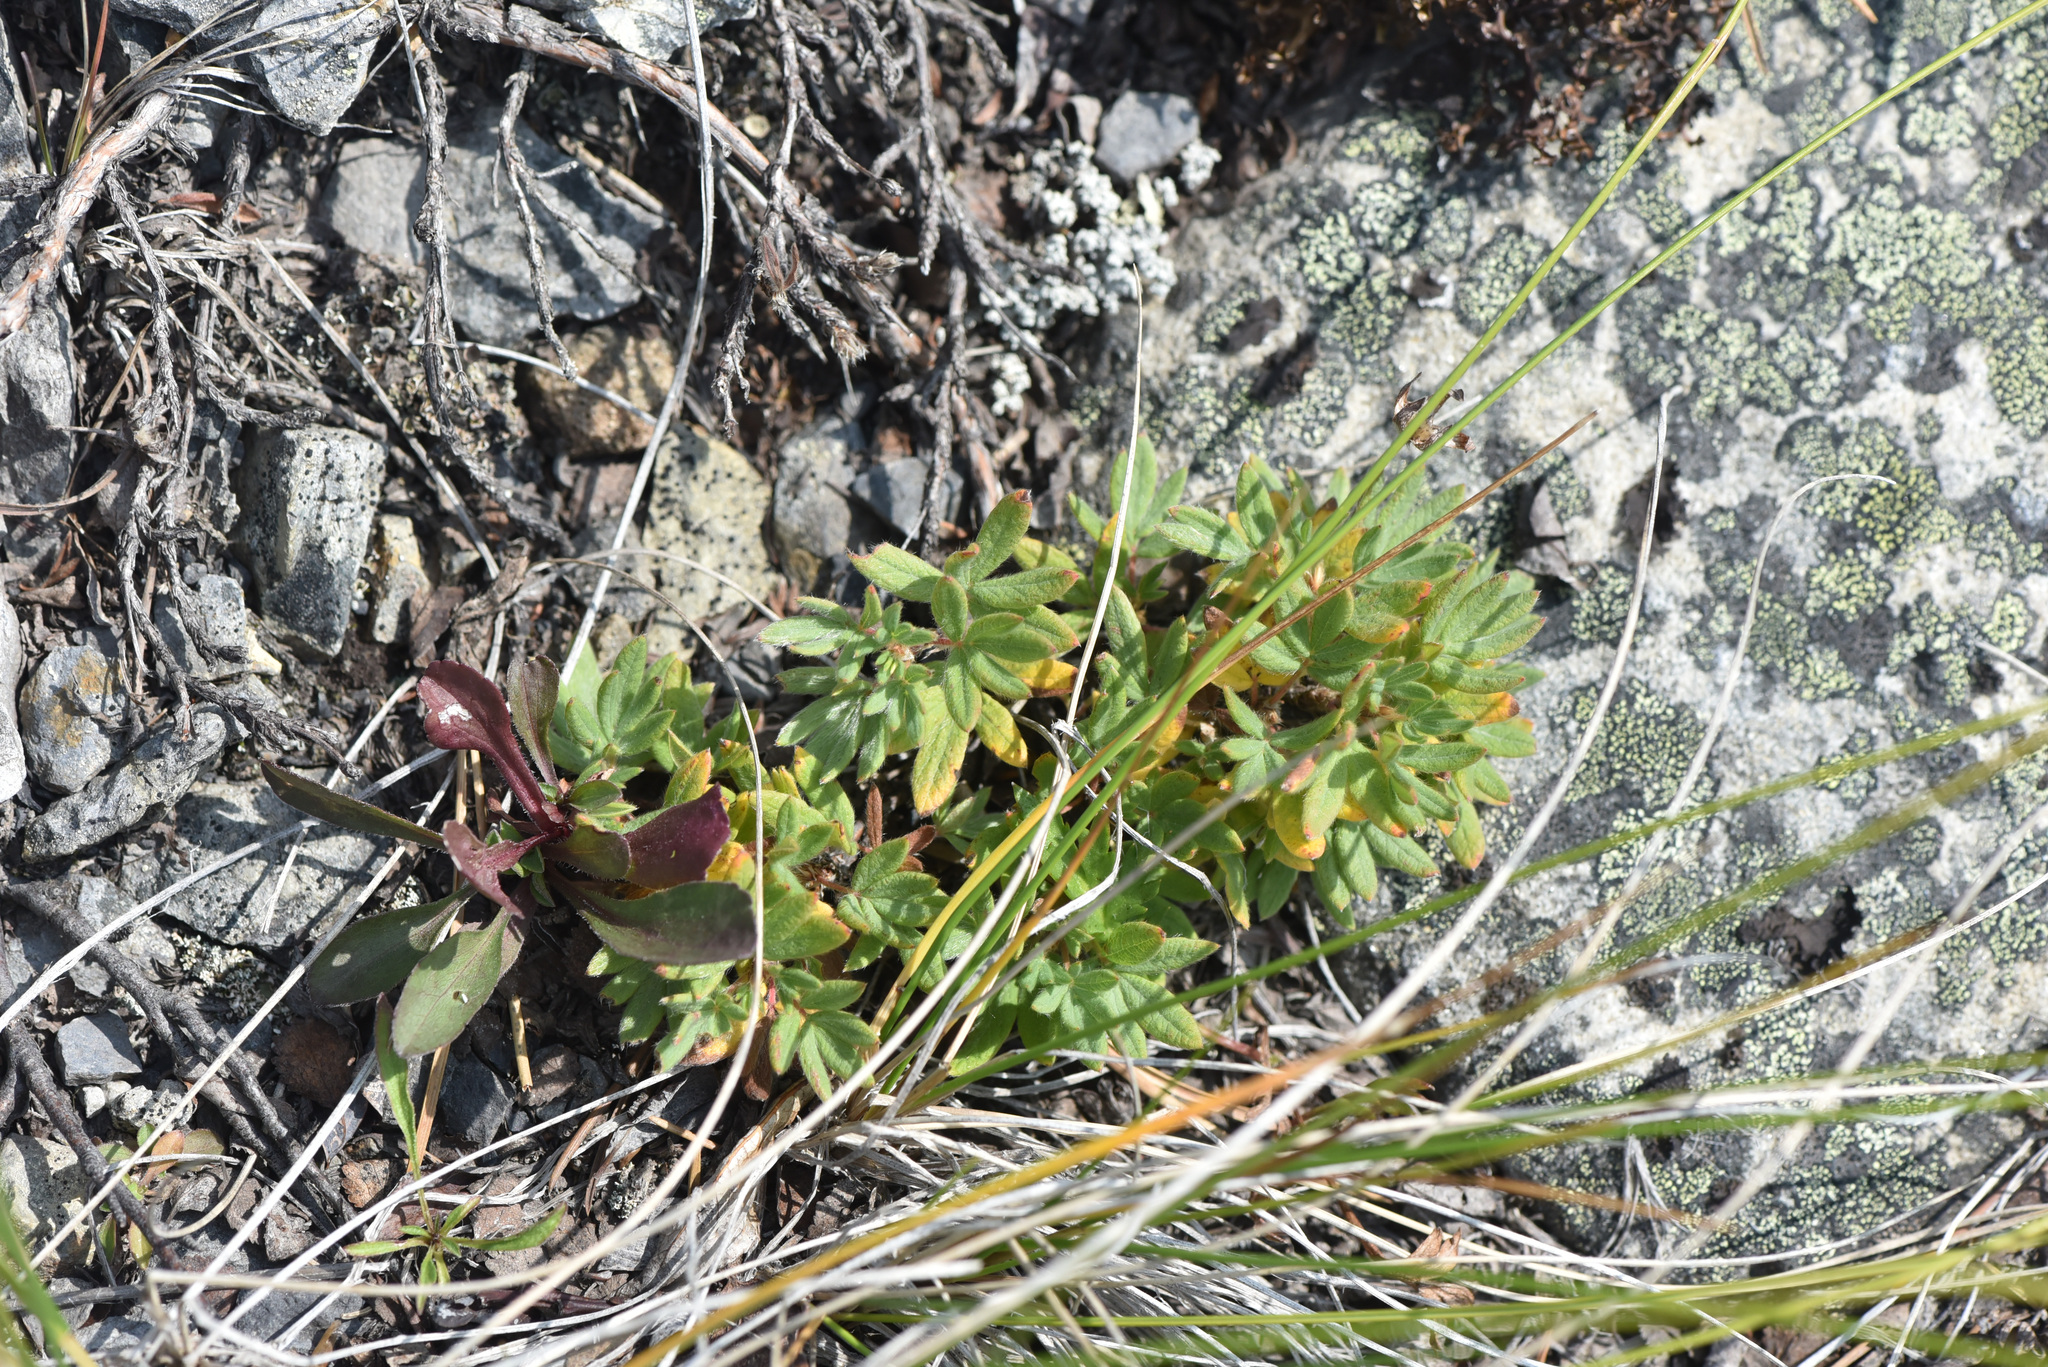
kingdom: Plantae
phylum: Tracheophyta
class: Magnoliopsida
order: Rosales
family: Rosaceae
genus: Dasiphora
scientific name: Dasiphora fruticosa
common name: Shrubby cinquefoil
